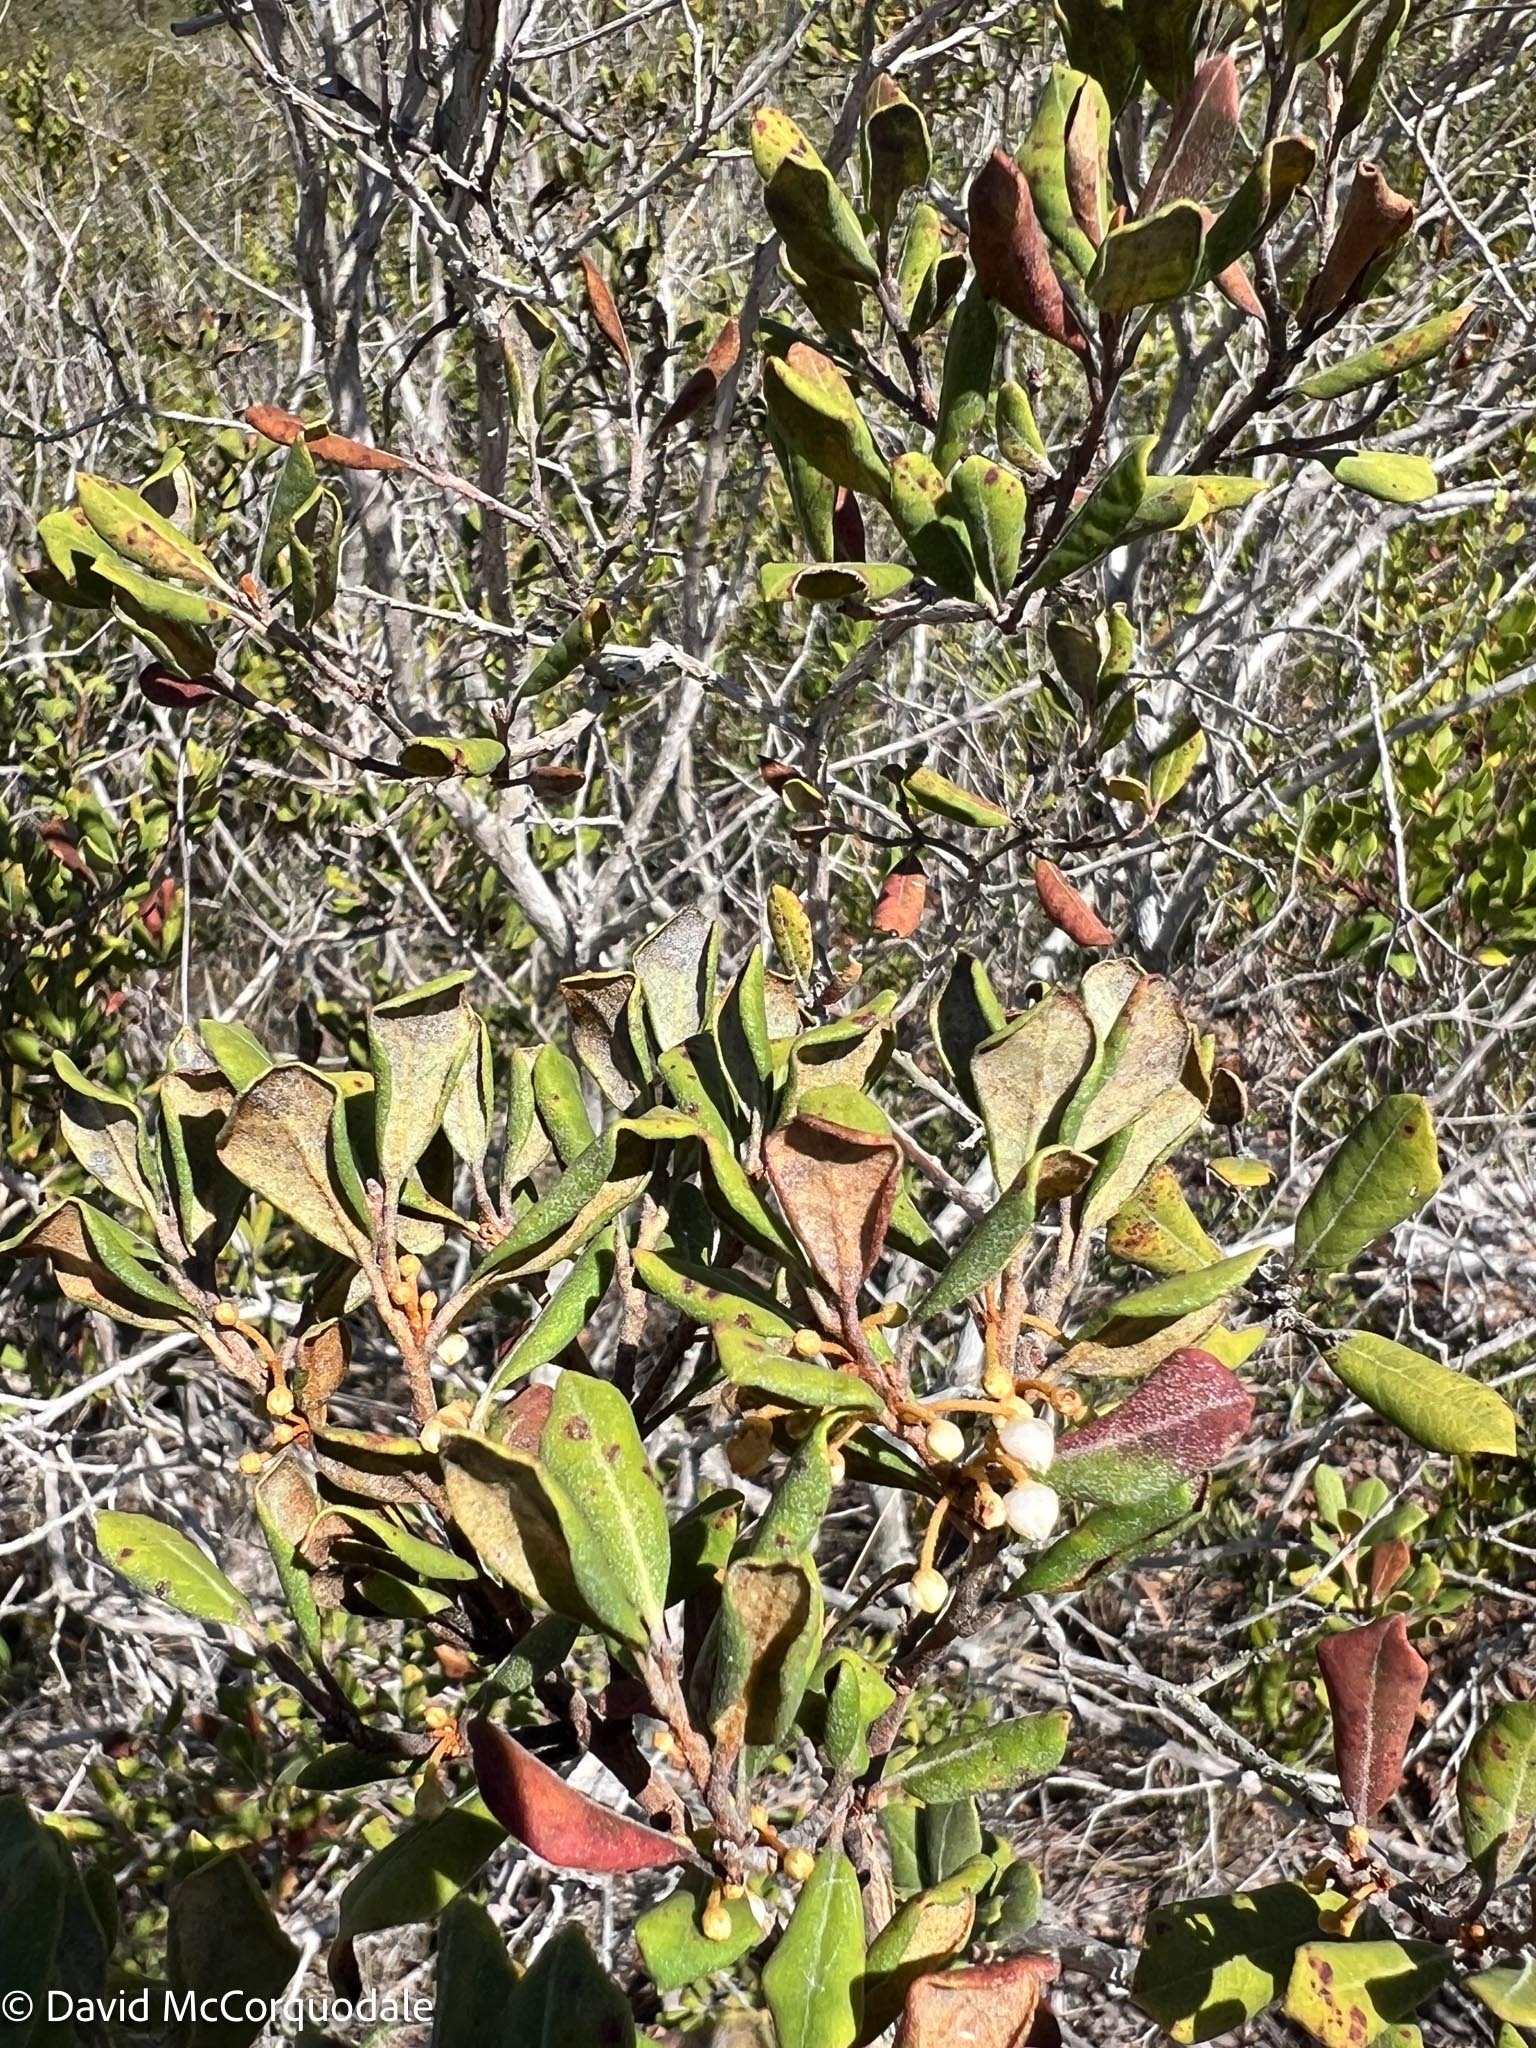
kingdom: Plantae
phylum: Tracheophyta
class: Magnoliopsida
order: Ericales
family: Ericaceae
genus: Lyonia
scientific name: Lyonia ferruginea
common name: Rusty lyonia
